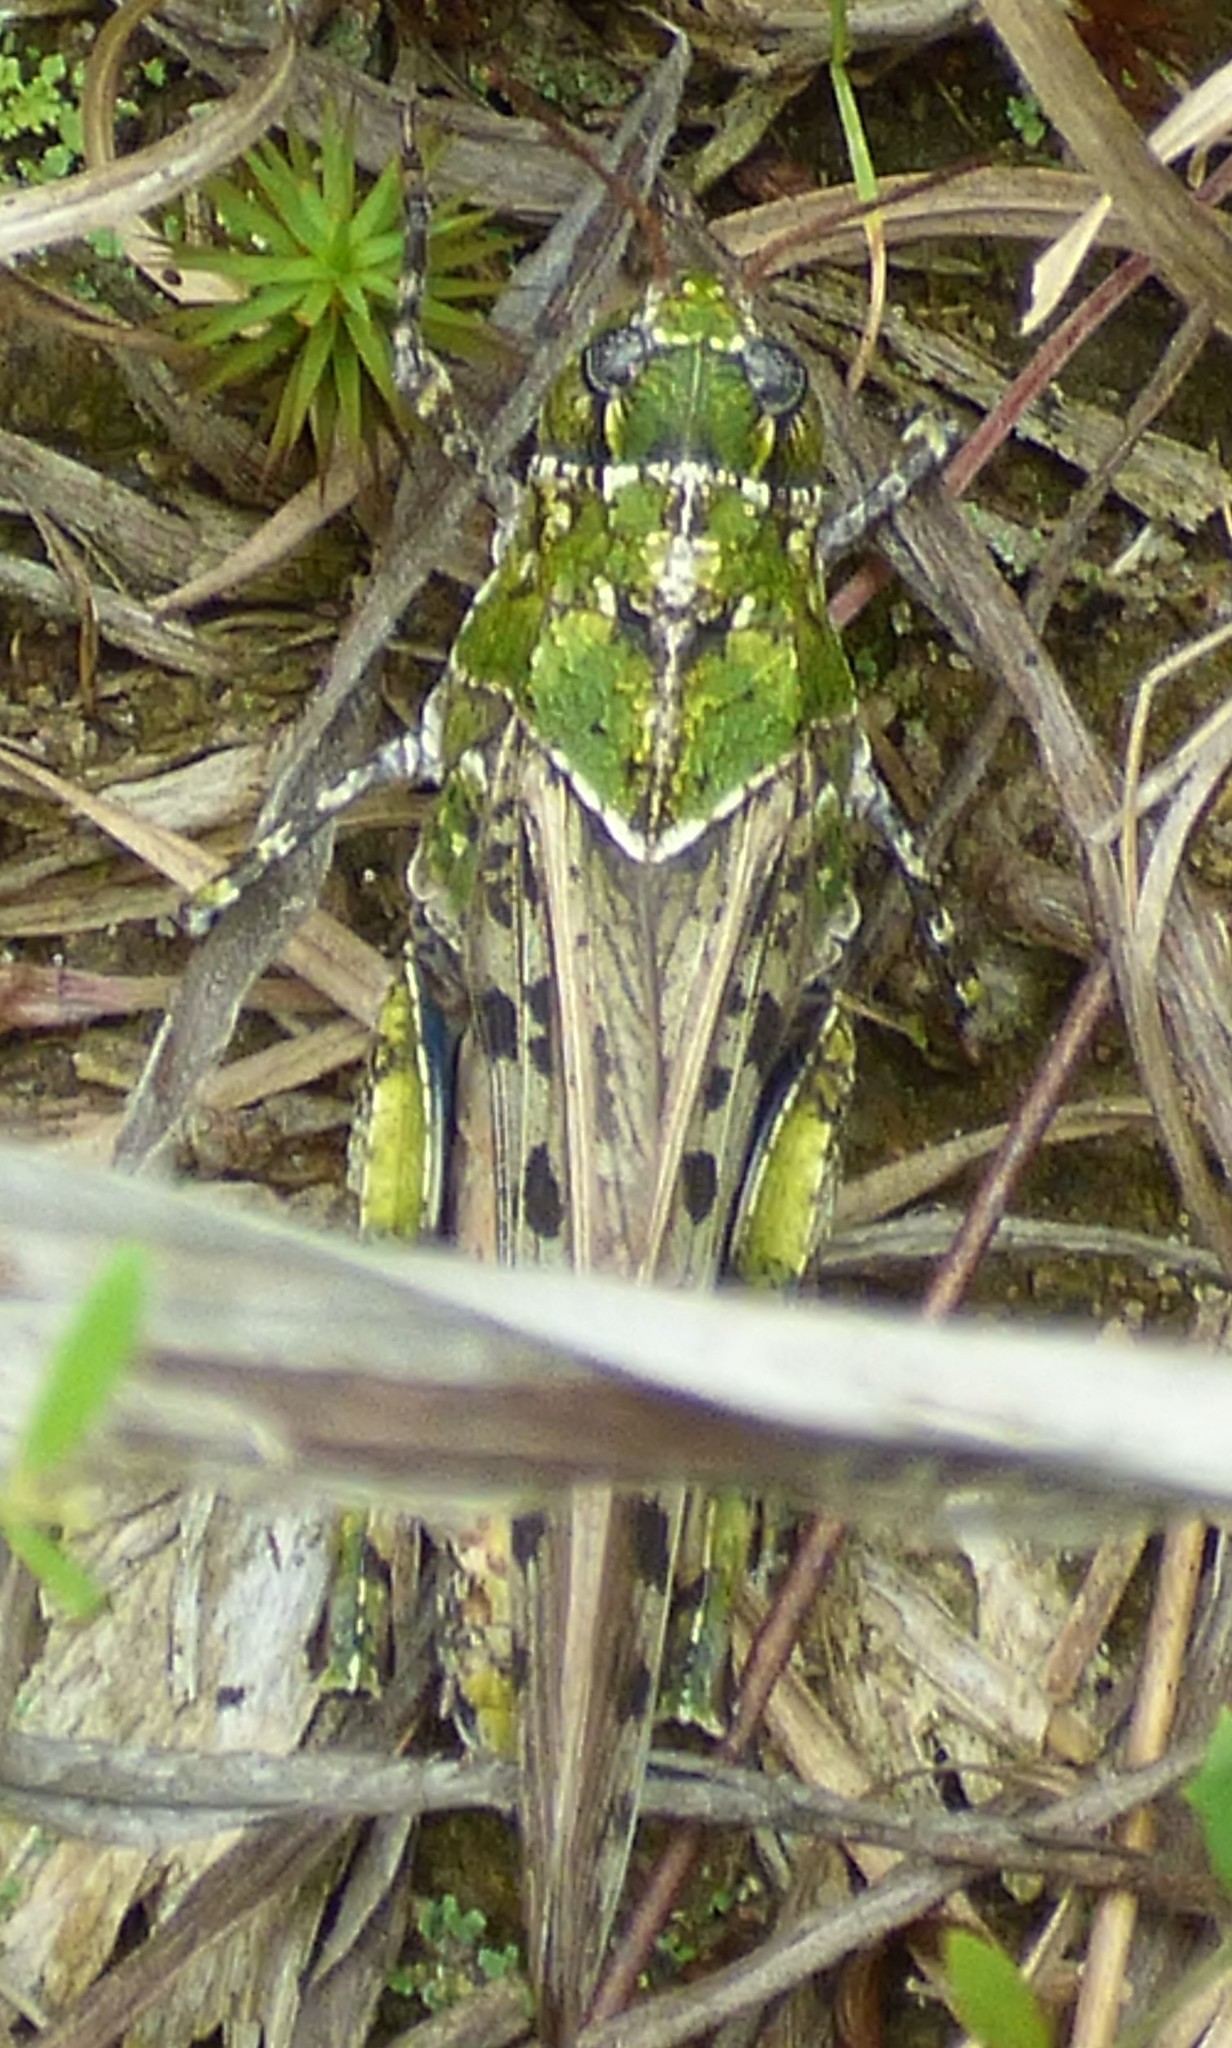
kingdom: Animalia
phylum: Arthropoda
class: Insecta
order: Orthoptera
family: Acrididae
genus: Pardalophora
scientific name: Pardalophora phoenicoptera
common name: Orange-winged grasshopper
